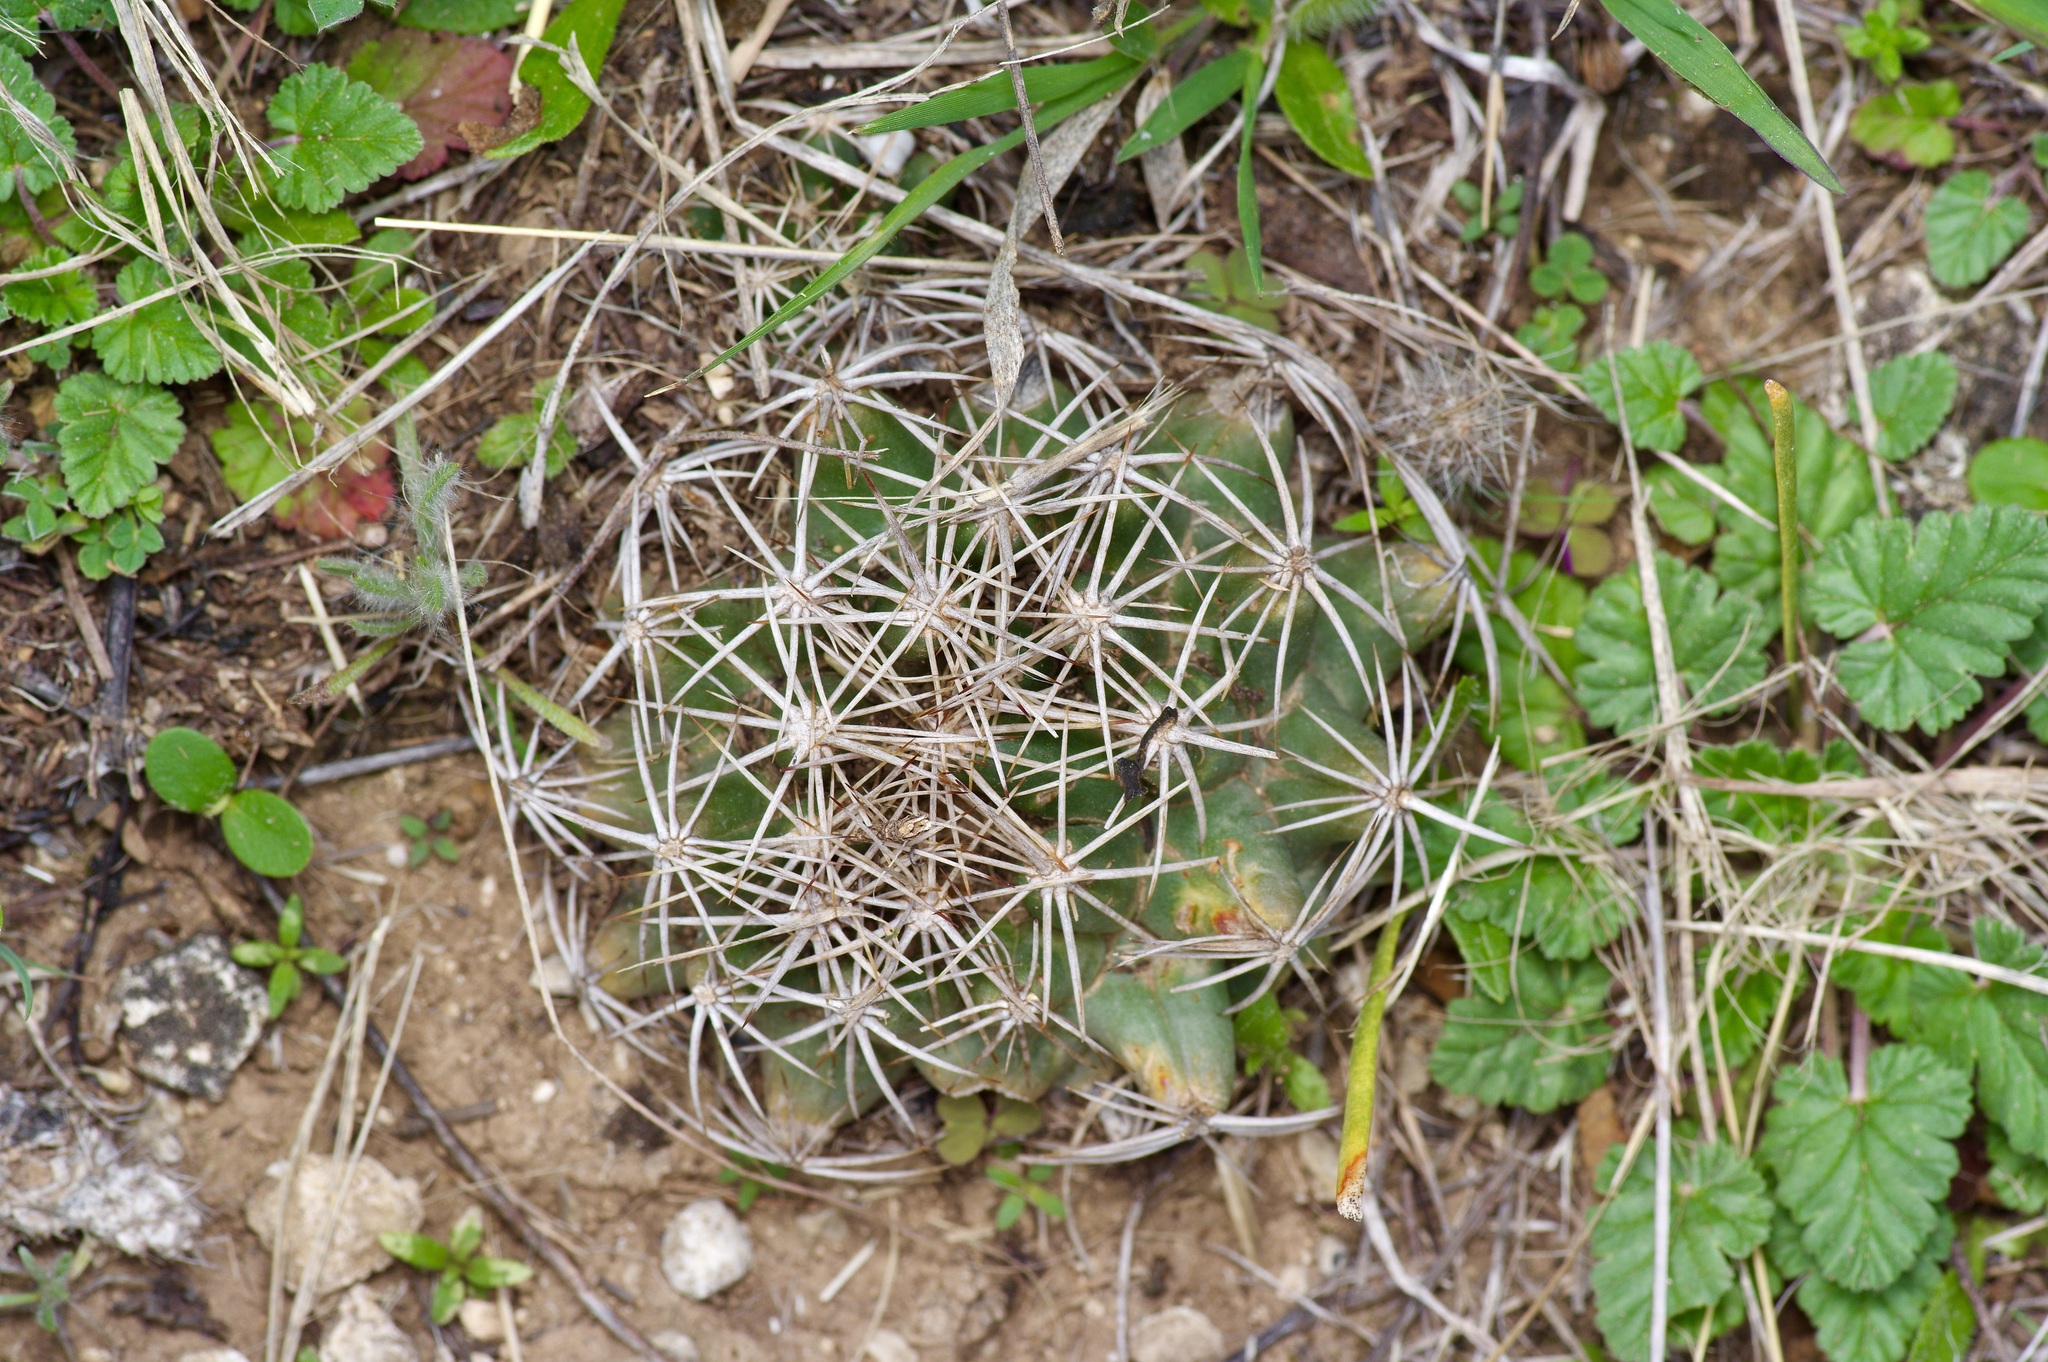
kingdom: Plantae
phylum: Tracheophyta
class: Magnoliopsida
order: Caryophyllales
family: Cactaceae
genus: Coryphantha
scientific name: Coryphantha sulcata
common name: Finger cactus
